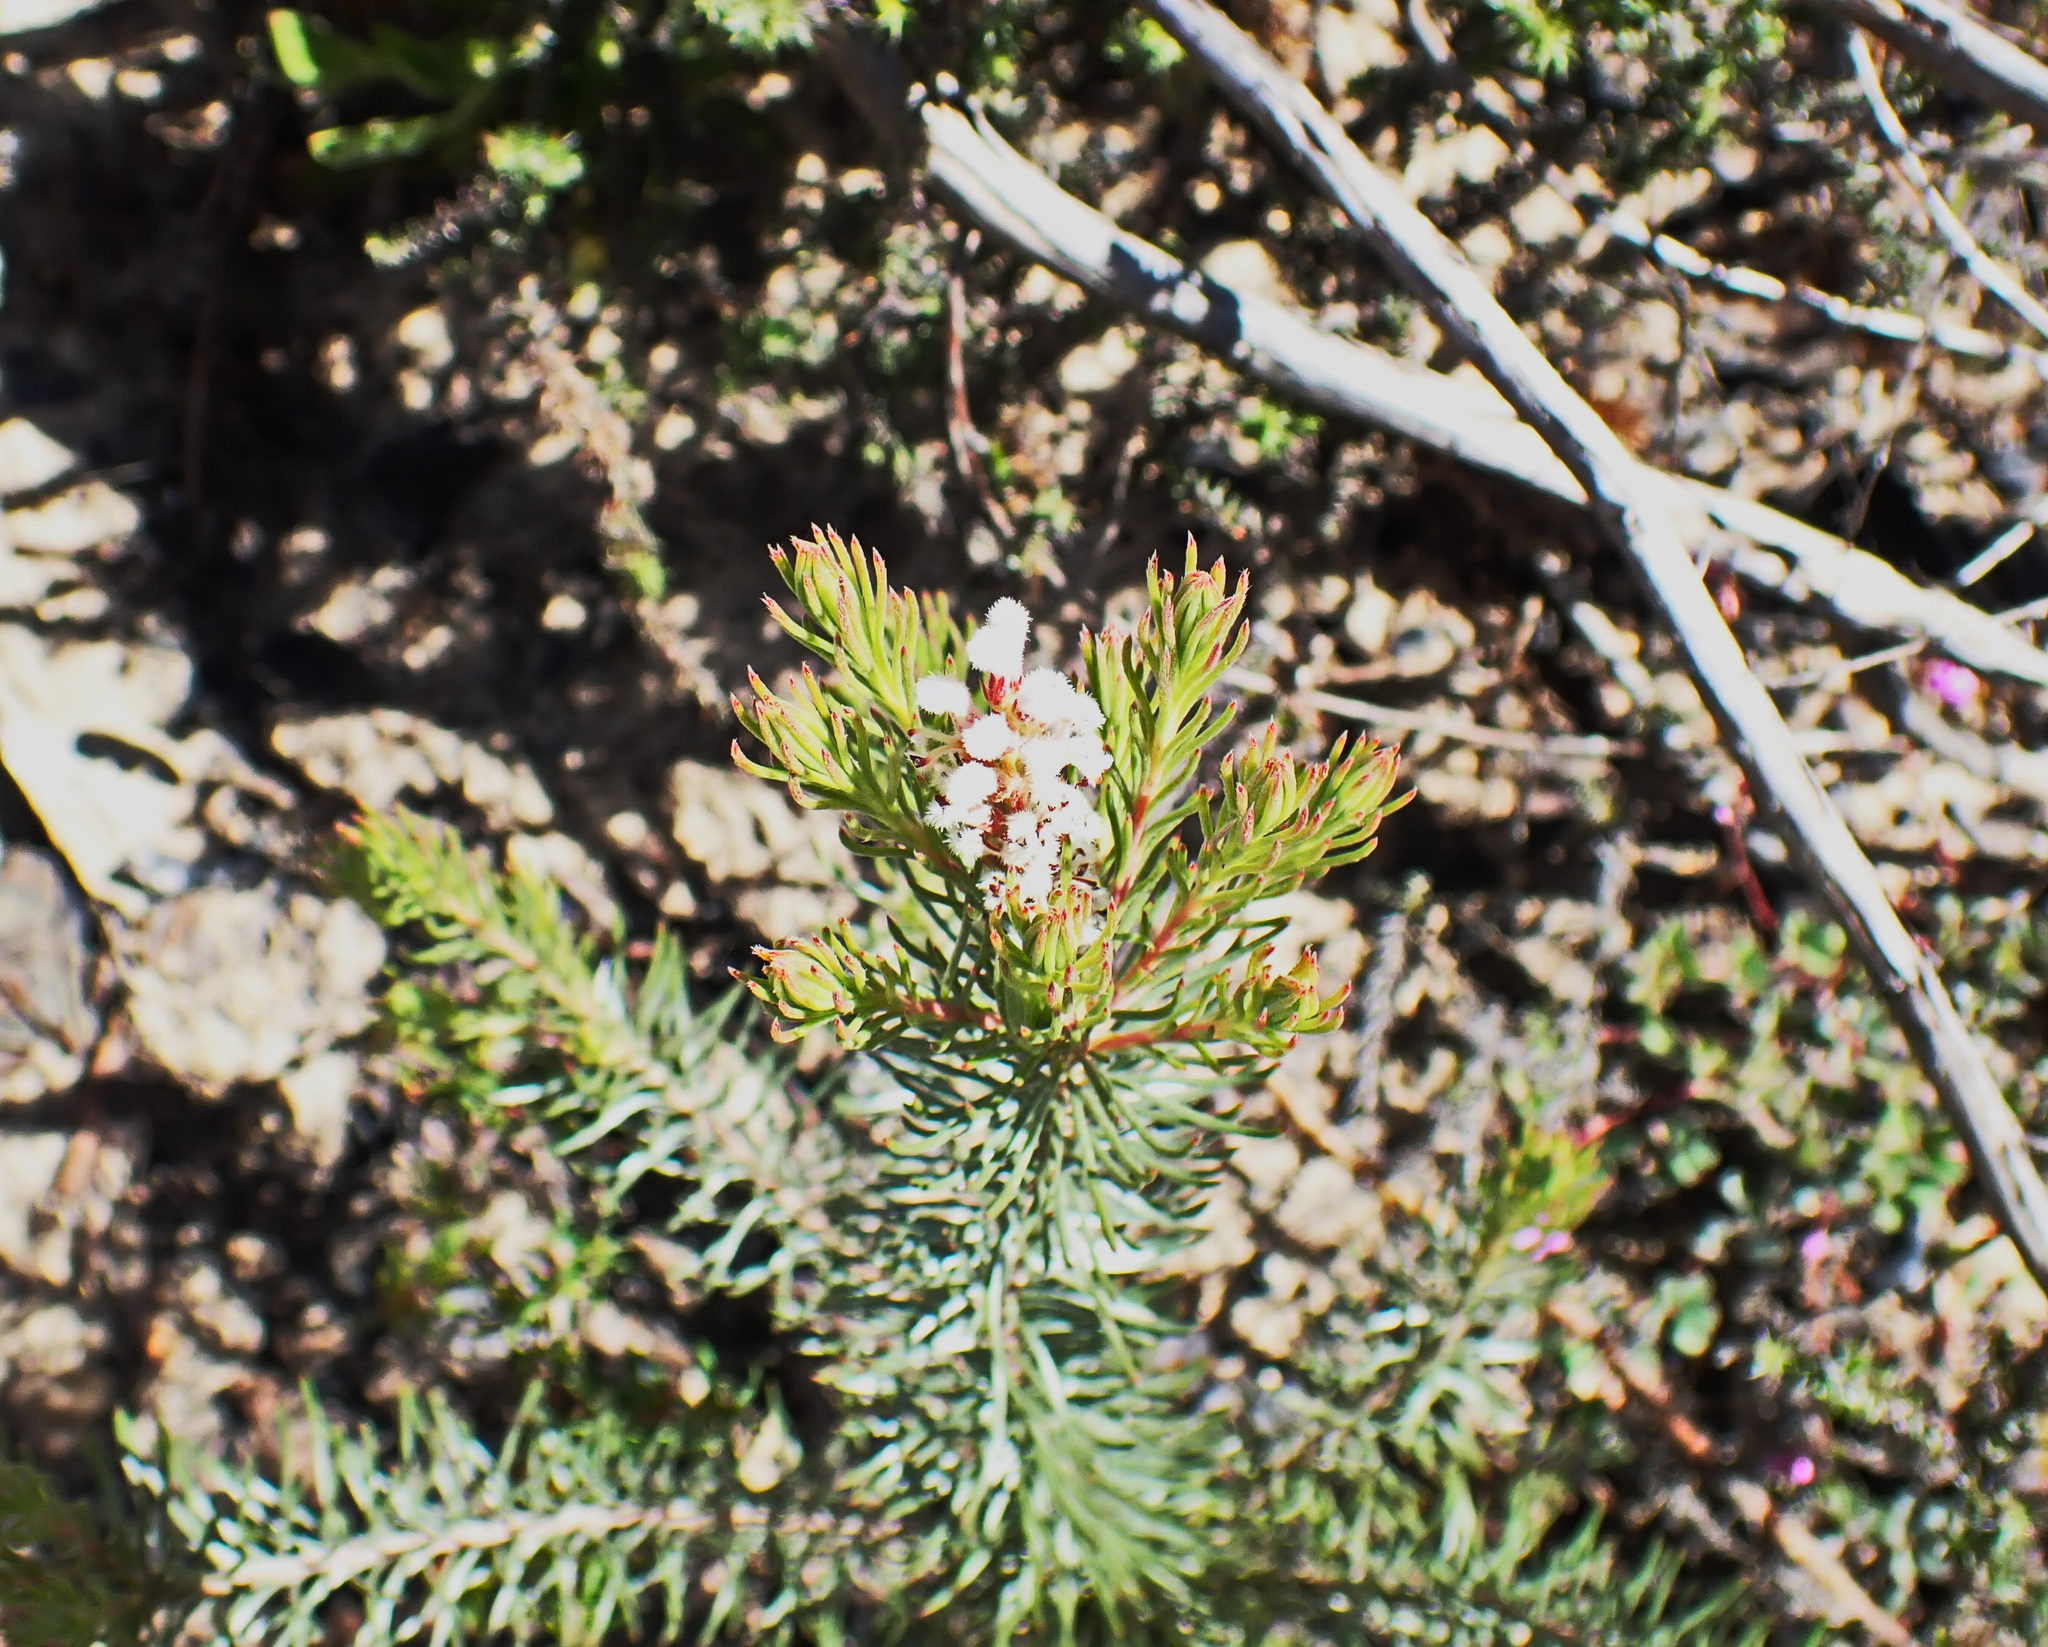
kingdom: Plantae
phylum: Tracheophyta
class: Magnoliopsida
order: Proteales
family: Proteaceae
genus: Spatalla
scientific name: Spatalla barbigera
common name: Fine-leaf spoon
